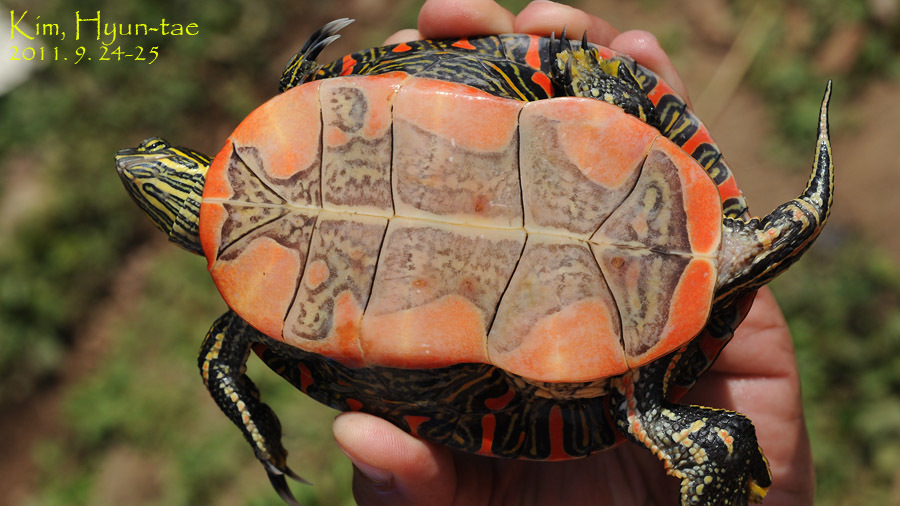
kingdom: Animalia
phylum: Chordata
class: Testudines
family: Emydidae
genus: Chrysemys
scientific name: Chrysemys picta
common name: Painted turtle
